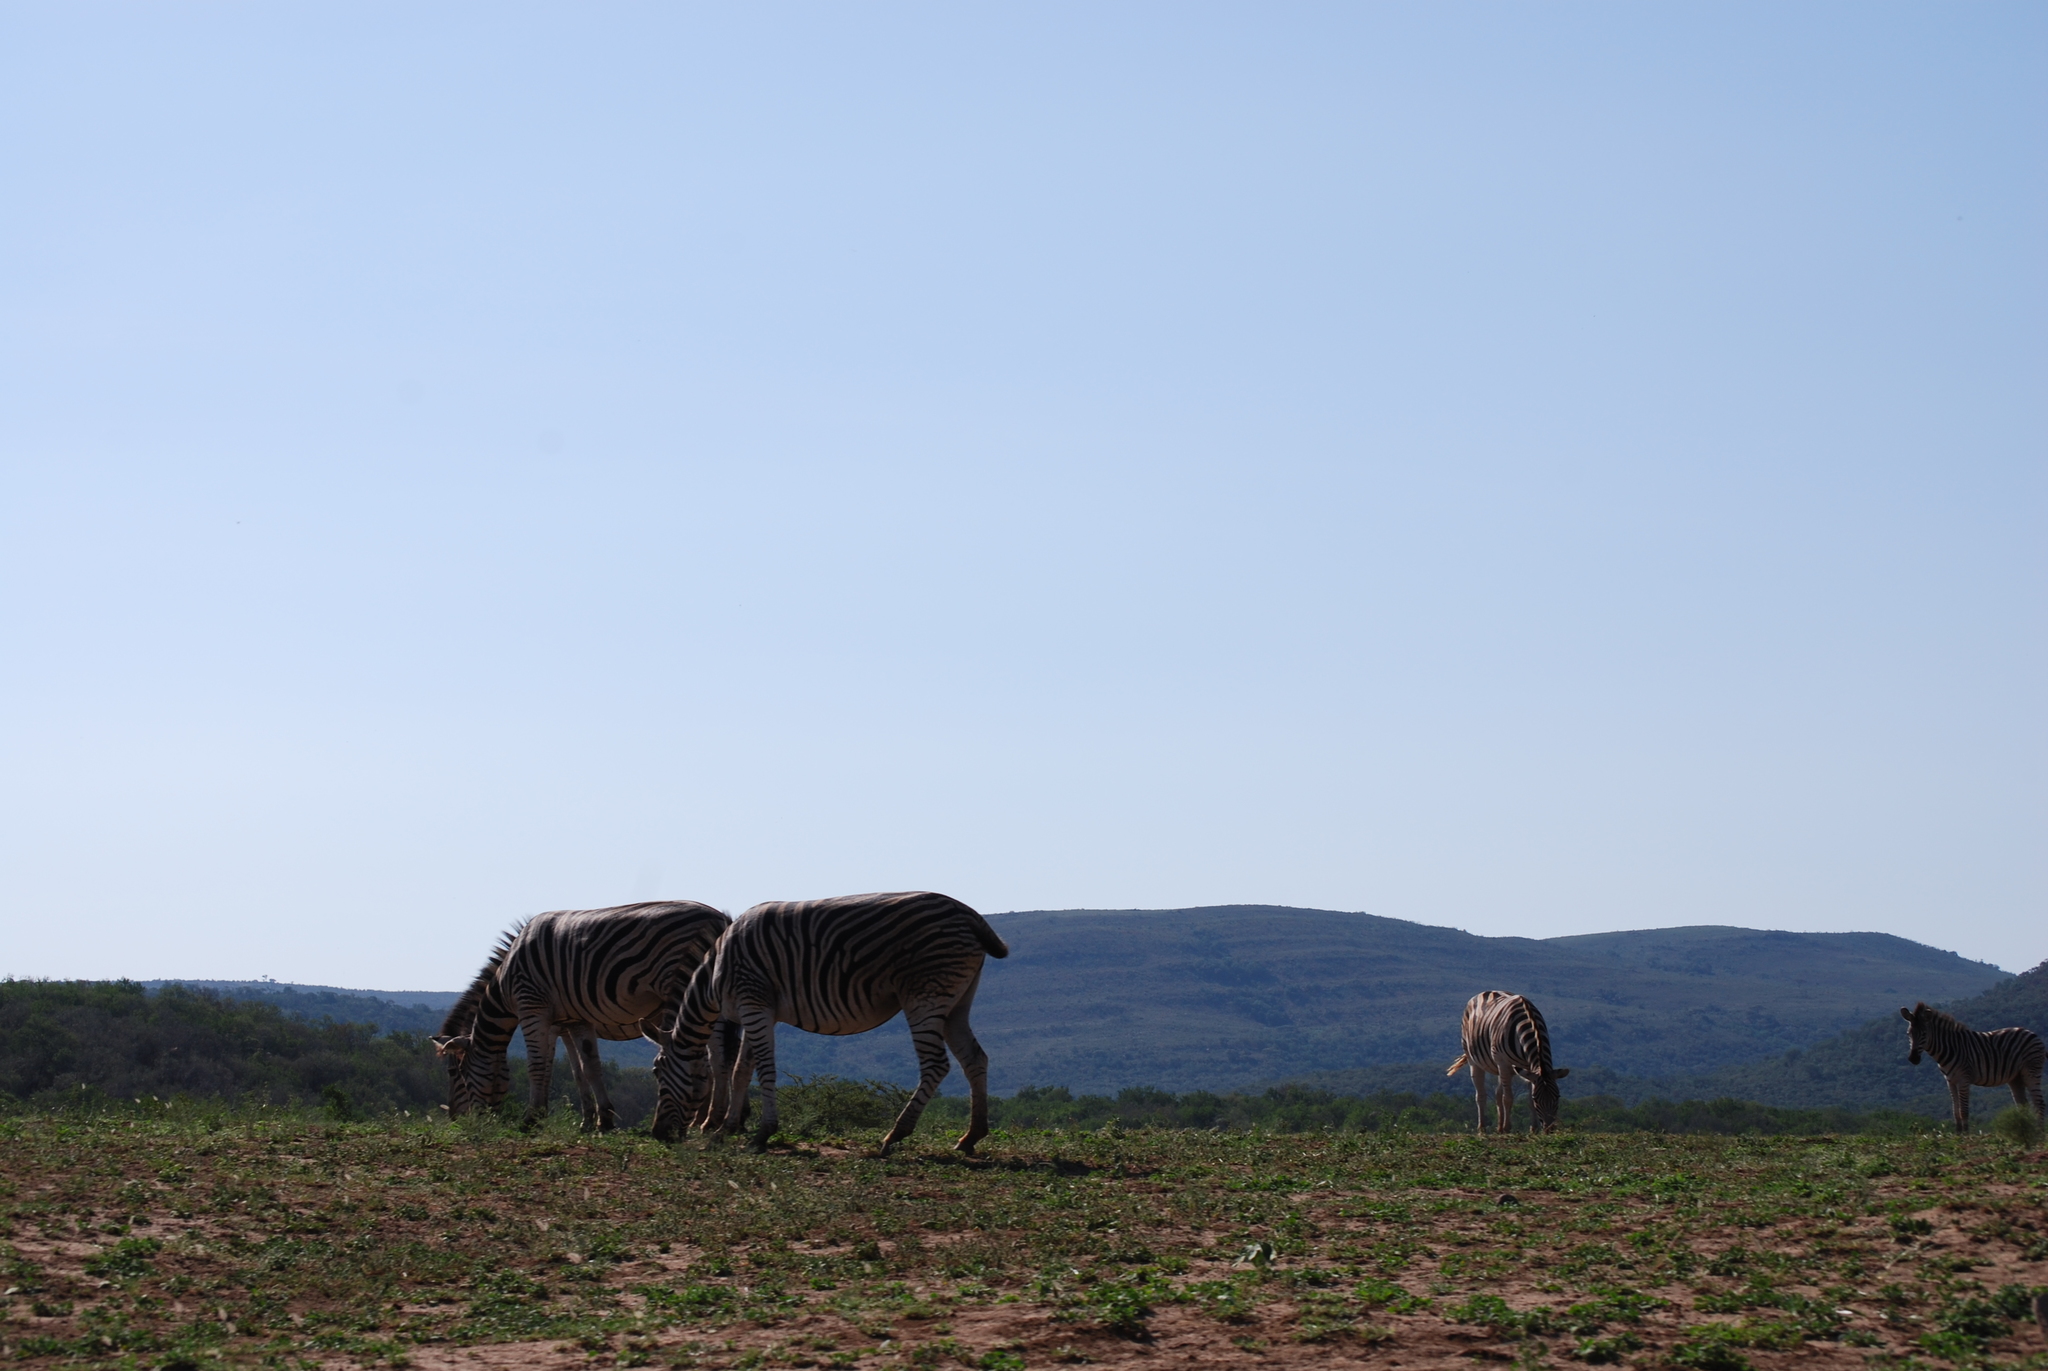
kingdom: Animalia
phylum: Chordata
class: Mammalia
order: Perissodactyla
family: Equidae
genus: Equus
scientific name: Equus quagga
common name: Plains zebra
